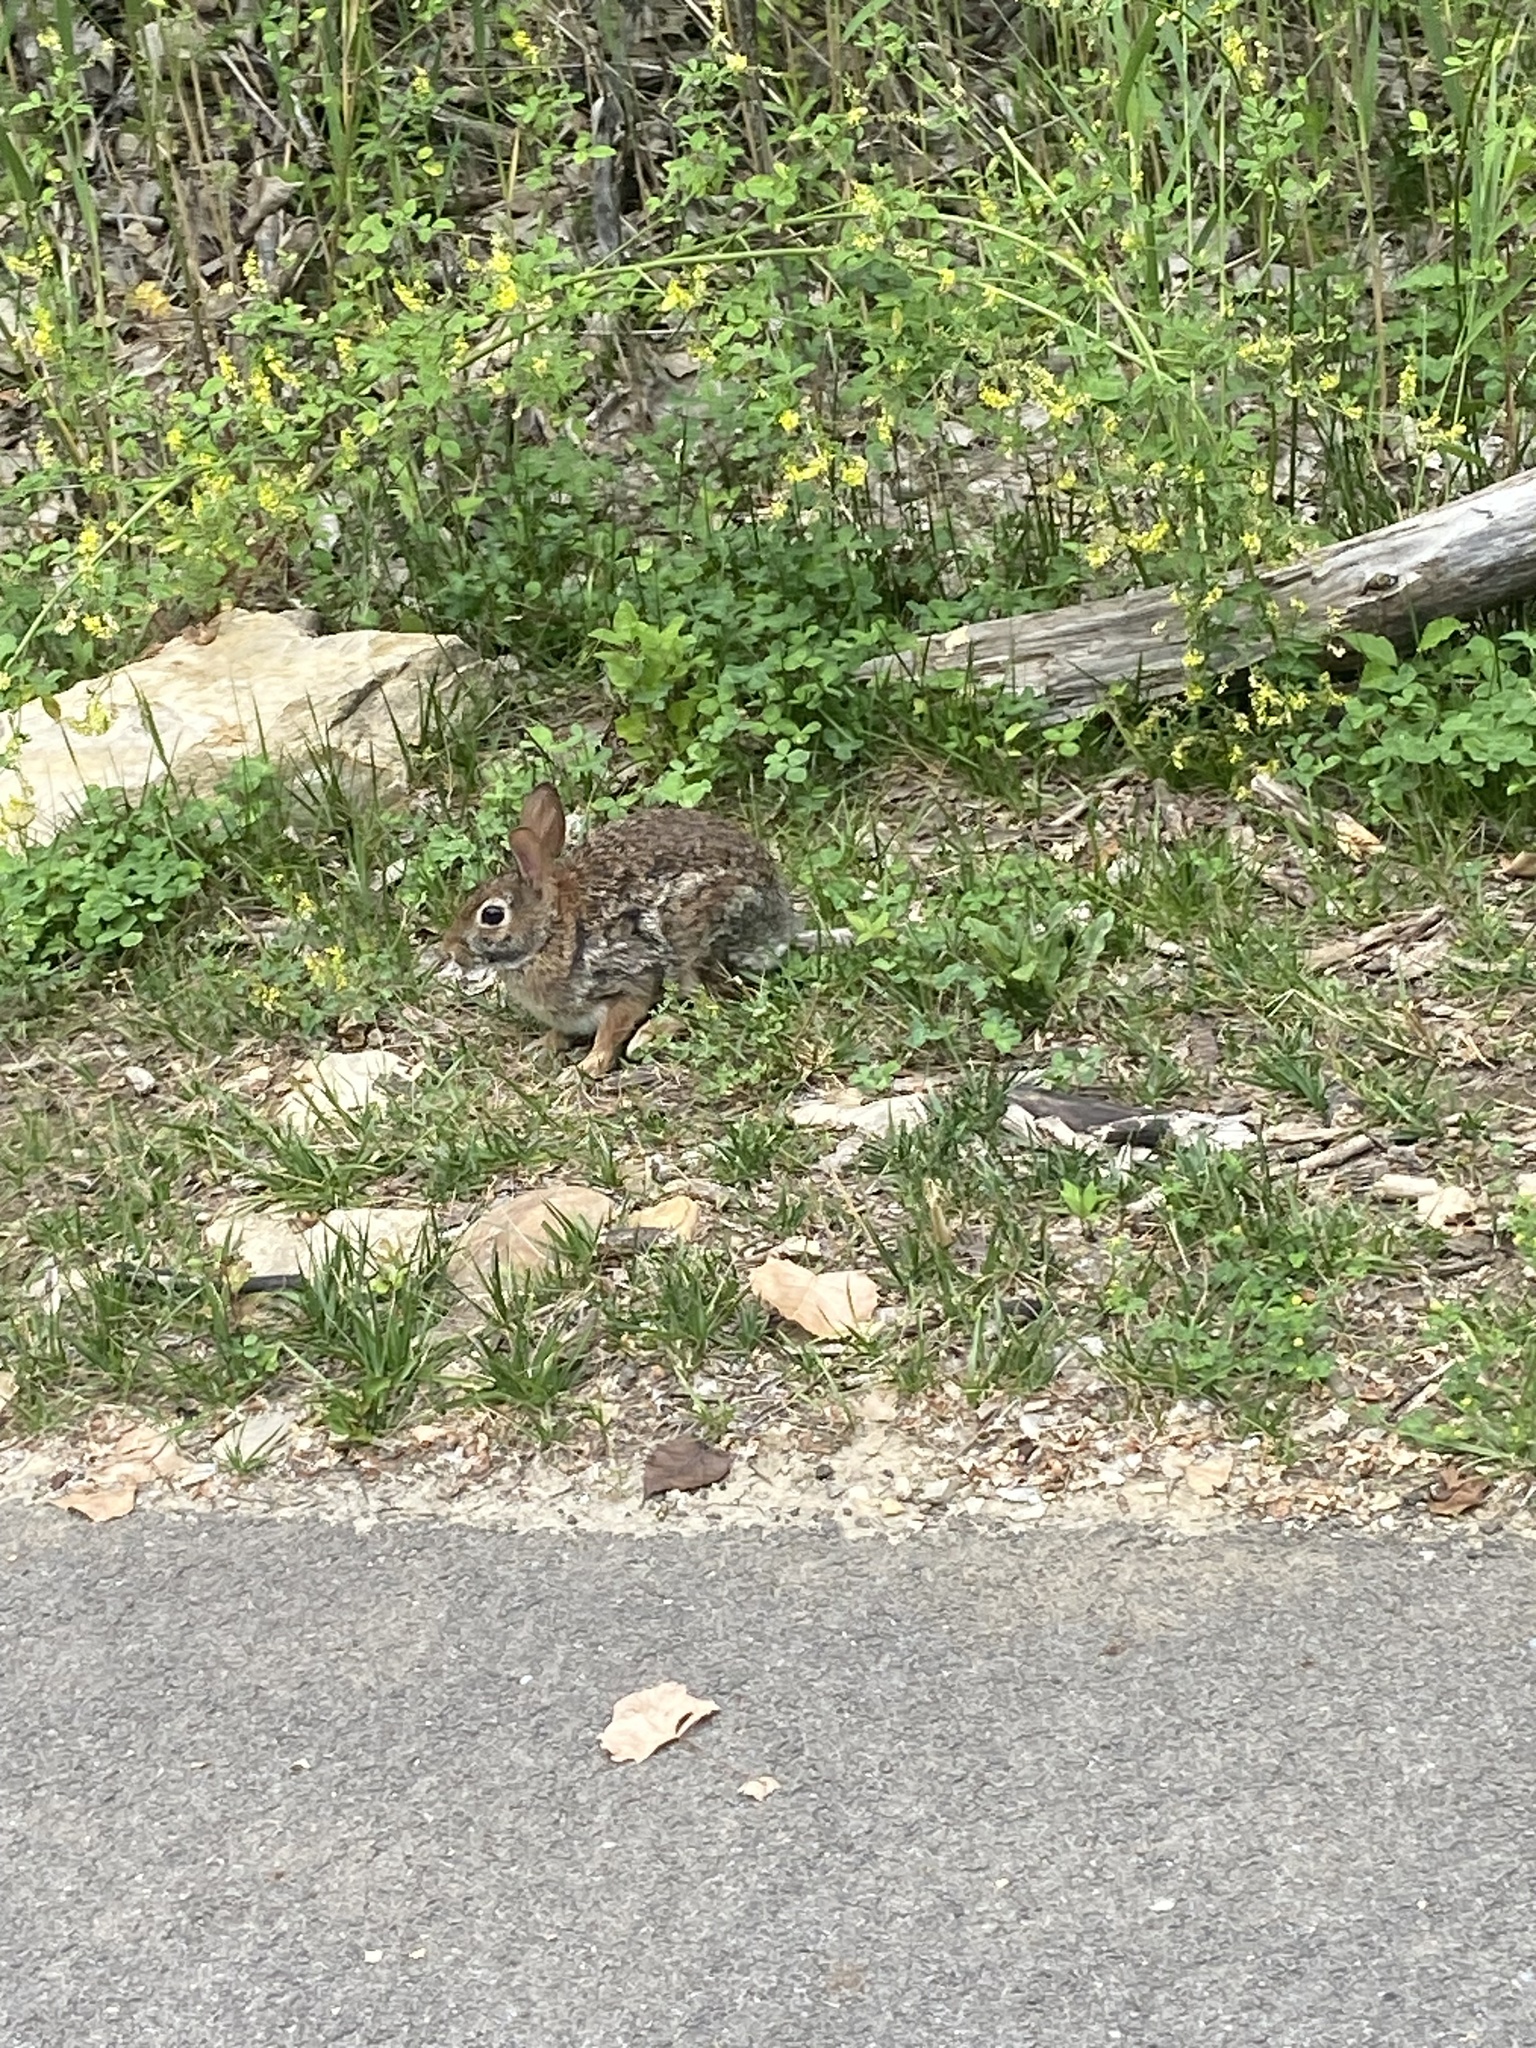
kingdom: Animalia
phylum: Chordata
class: Mammalia
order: Lagomorpha
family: Leporidae
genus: Sylvilagus
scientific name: Sylvilagus floridanus
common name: Eastern cottontail
